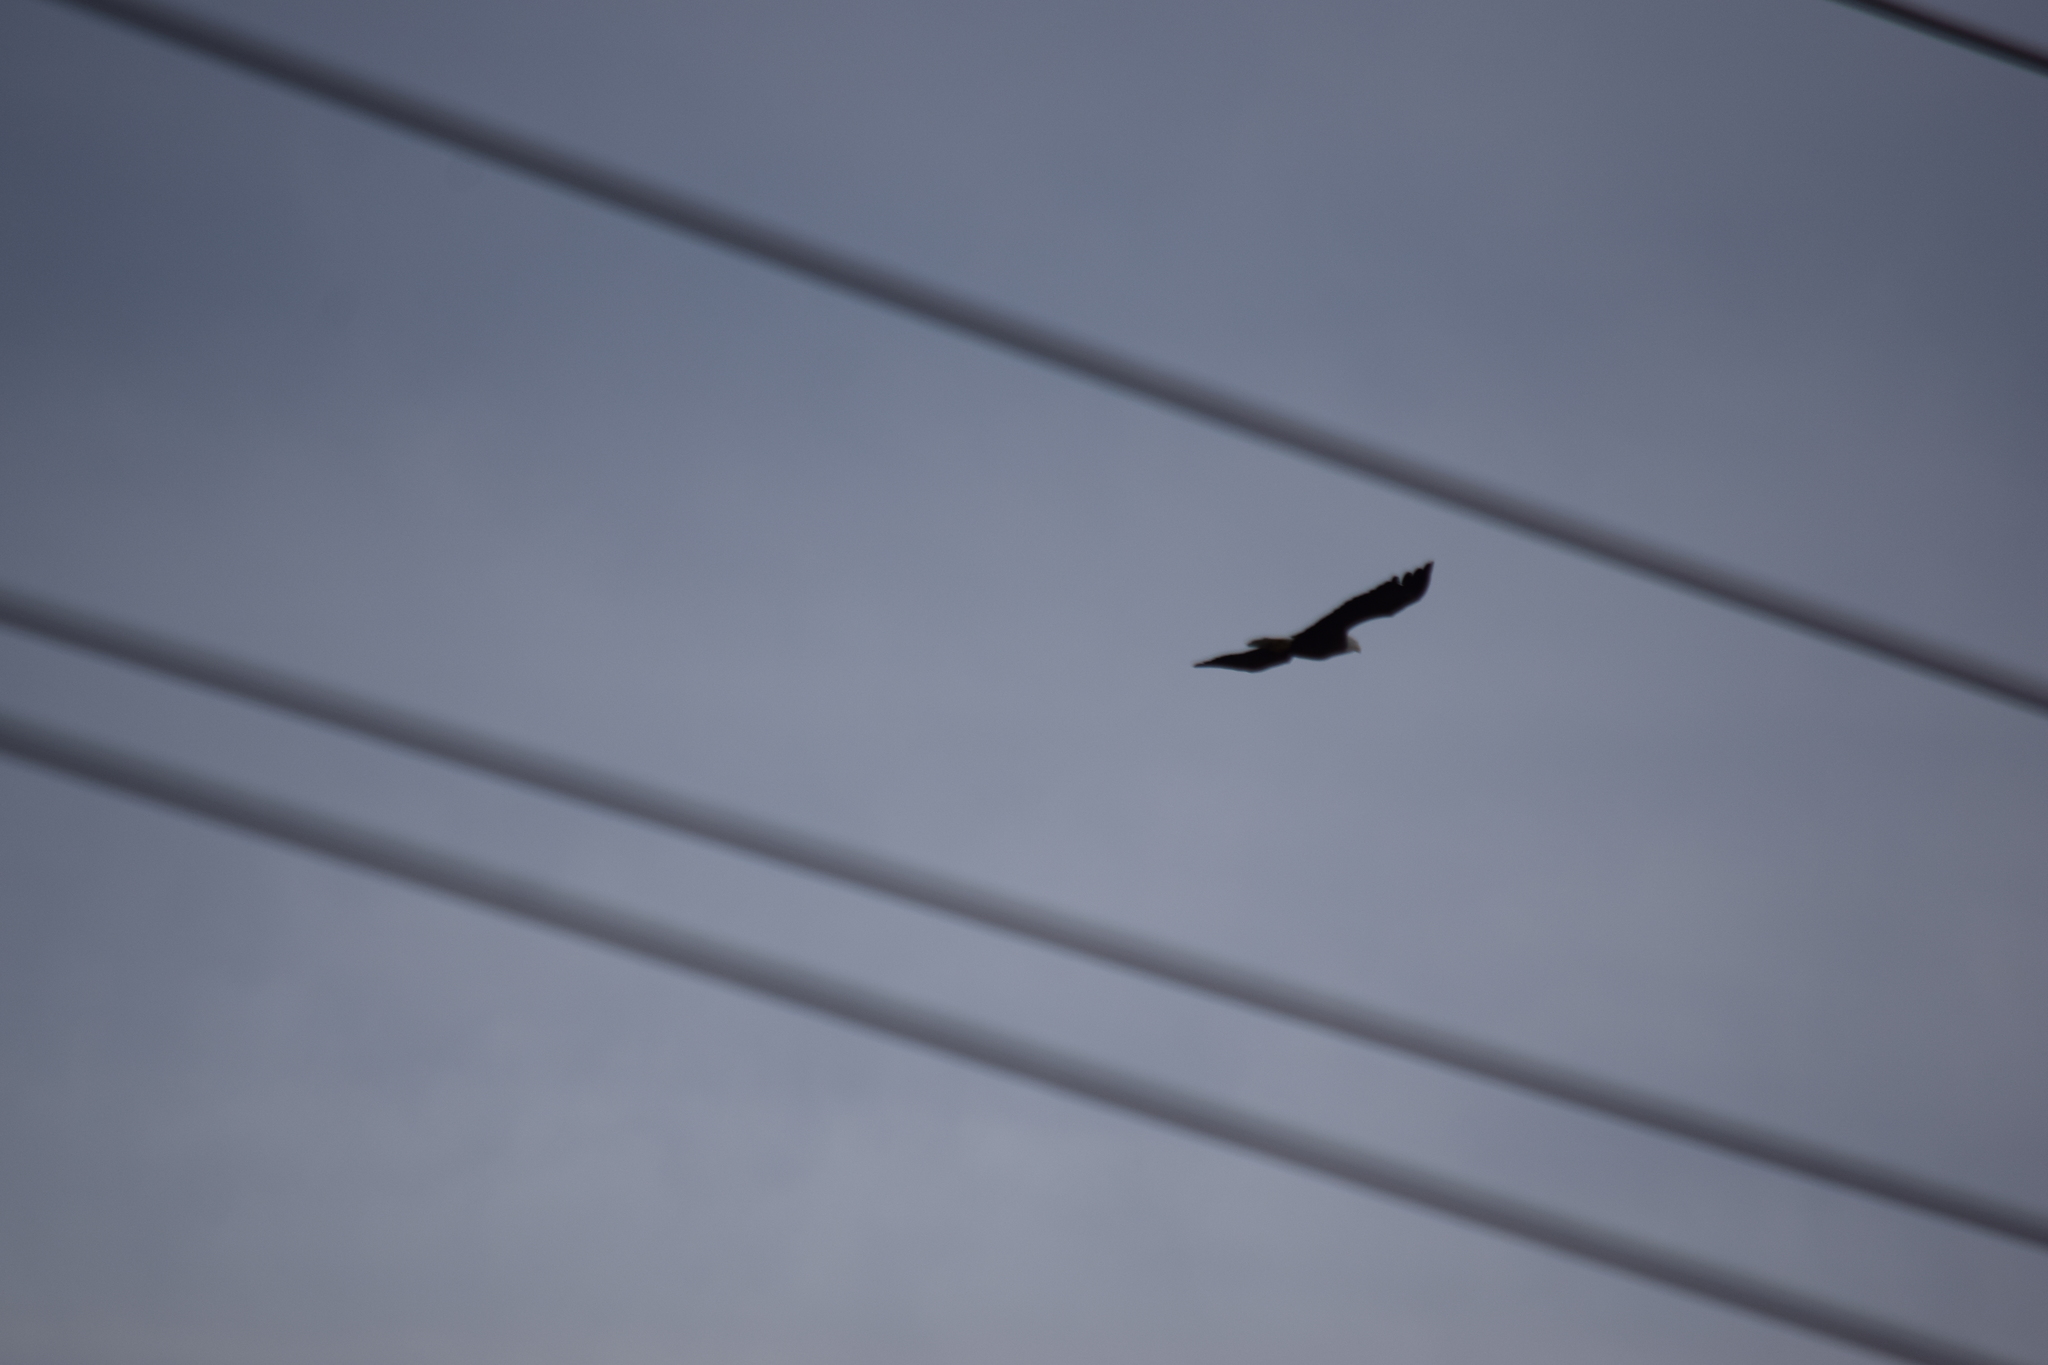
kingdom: Animalia
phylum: Chordata
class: Aves
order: Accipitriformes
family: Accipitridae
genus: Haliaeetus
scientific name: Haliaeetus leucocephalus
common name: Bald eagle
